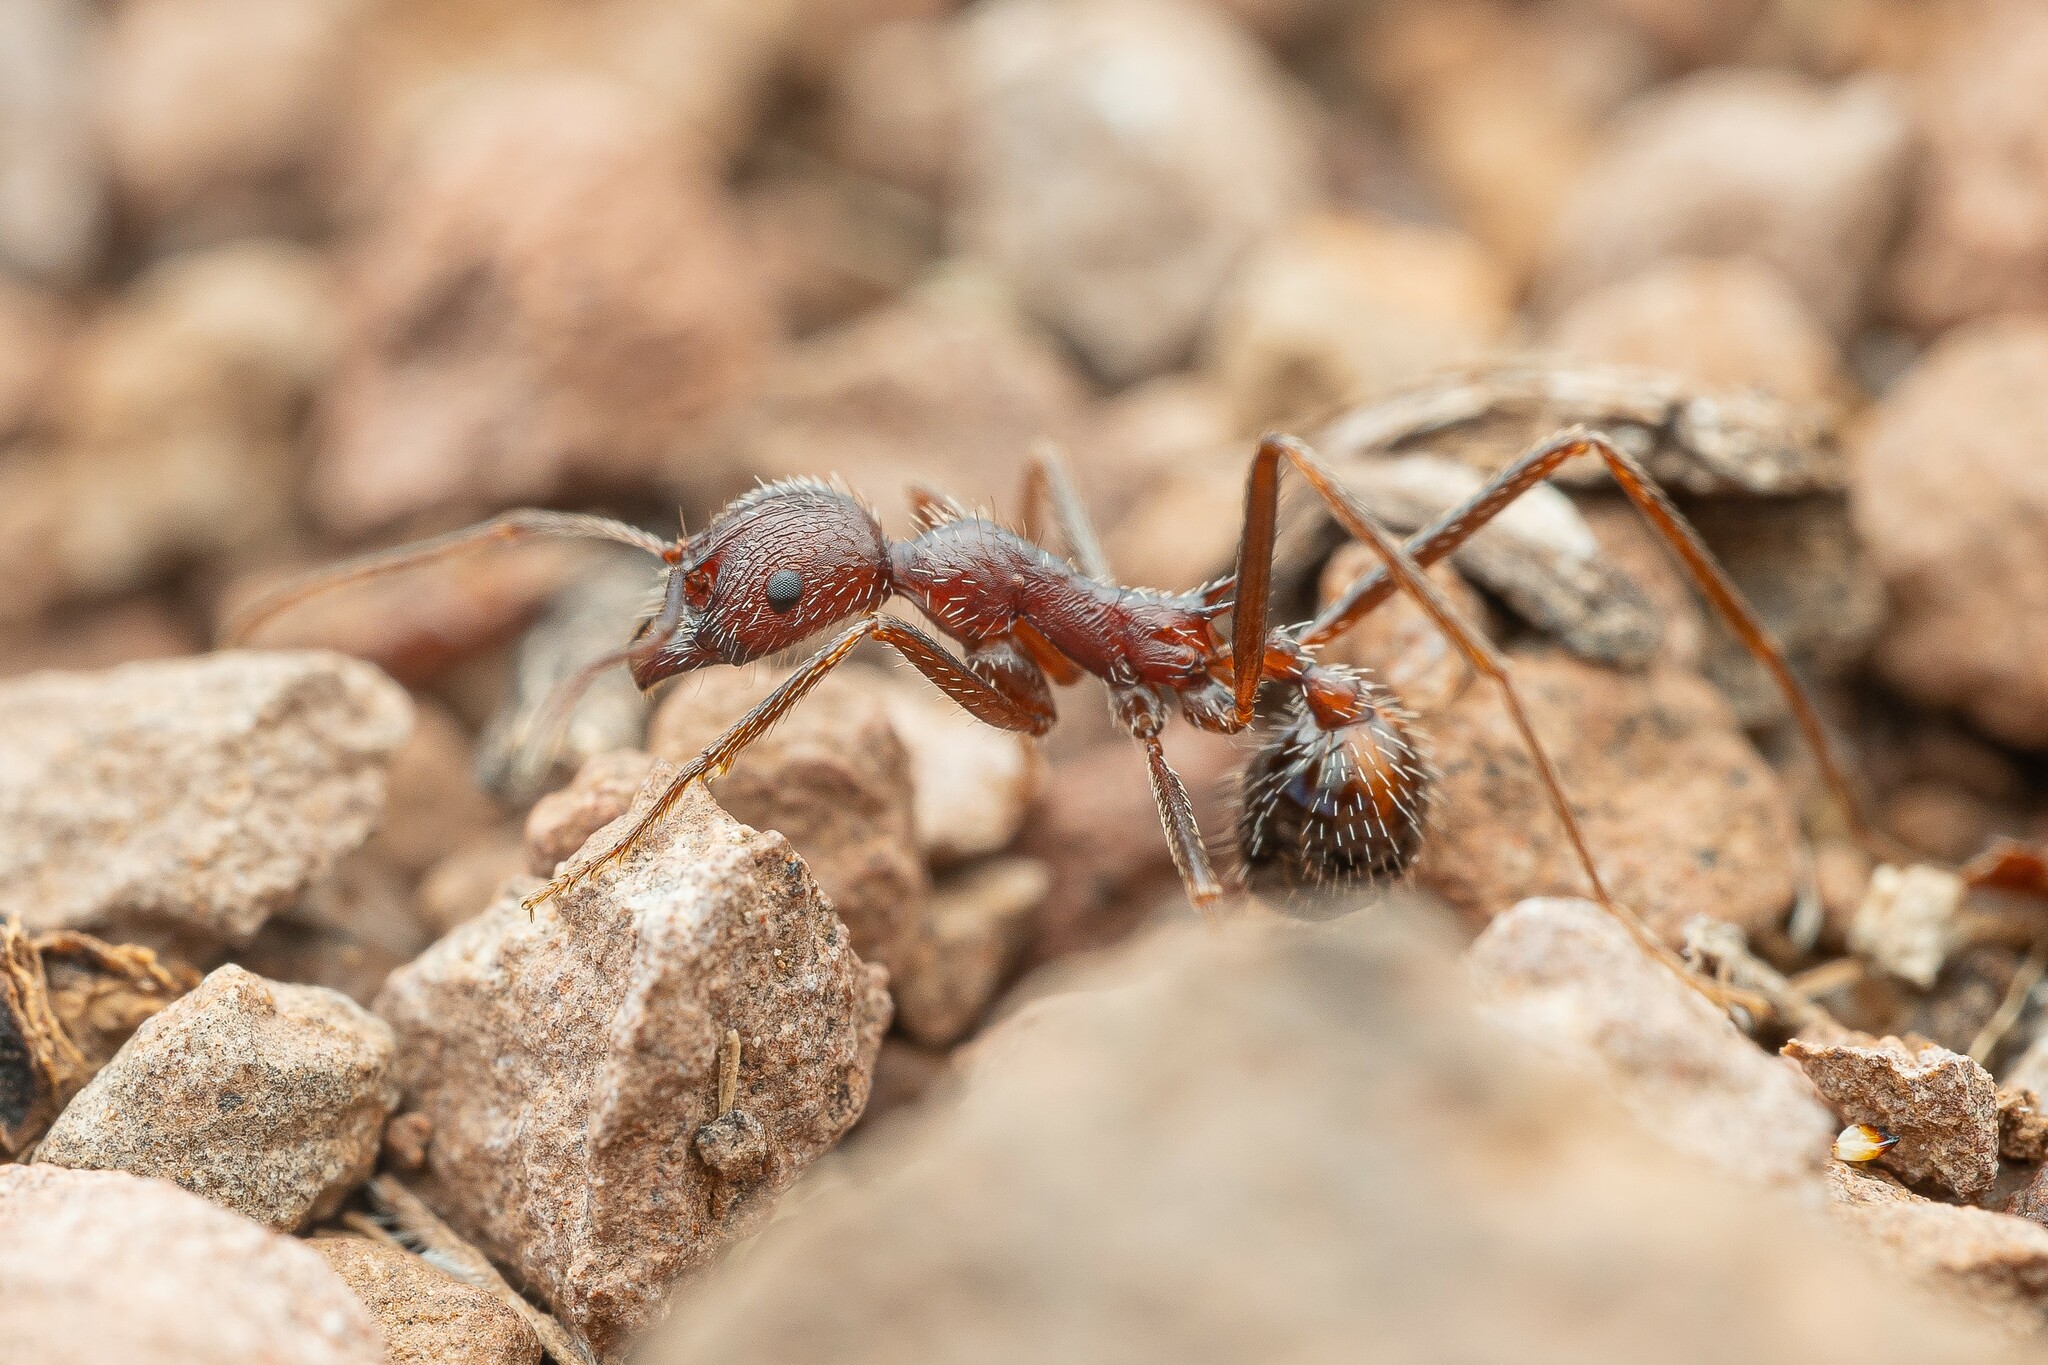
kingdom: Animalia
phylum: Arthropoda
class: Insecta
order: Hymenoptera
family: Formicidae
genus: Novomessor
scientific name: Novomessor albisetosa
